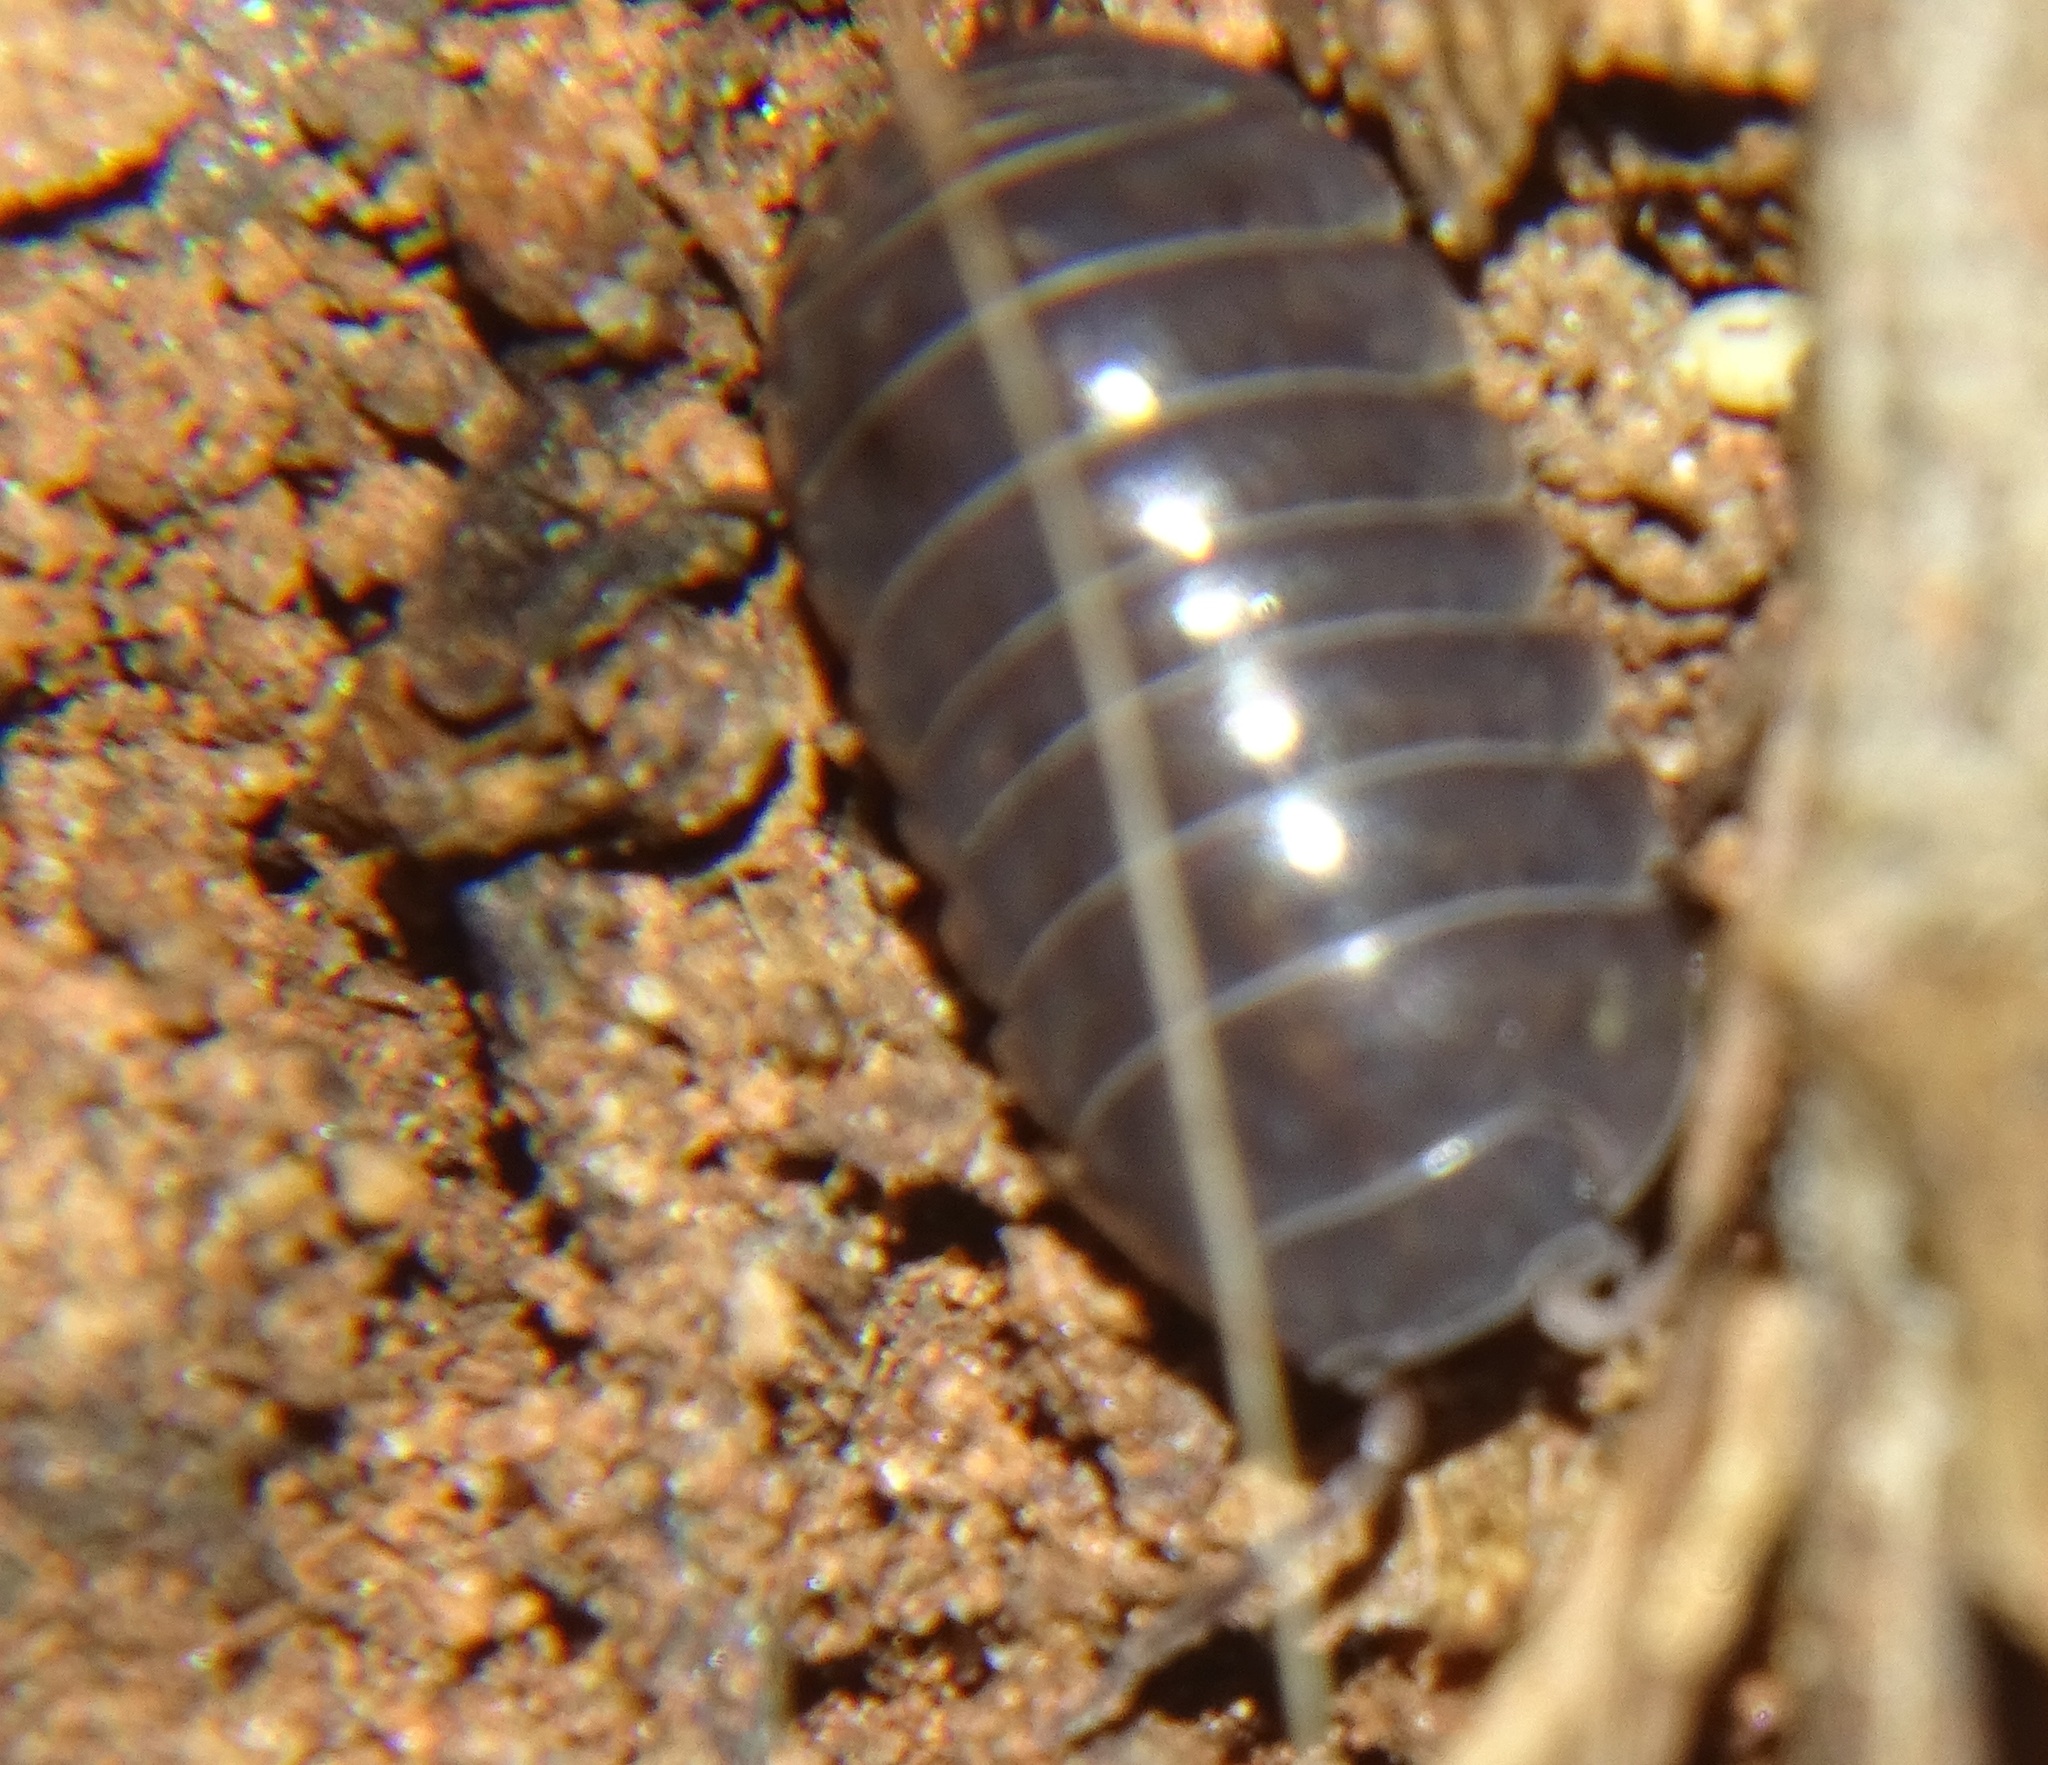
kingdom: Animalia
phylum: Arthropoda
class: Malacostraca
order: Isopoda
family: Armadillidiidae
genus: Armadillidium
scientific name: Armadillidium vulgare
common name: Common pill woodlouse
